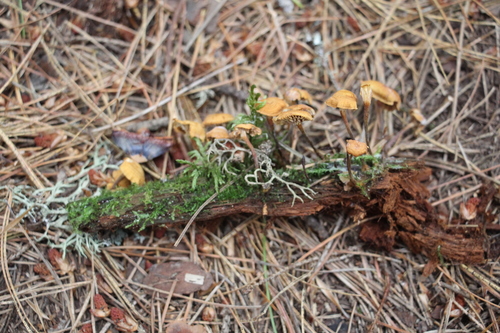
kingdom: Fungi
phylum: Basidiomycota
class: Agaricomycetes
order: Agaricales
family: Mycenaceae
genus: Xeromphalina
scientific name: Xeromphalina campanella
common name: Pinewood gingertail
